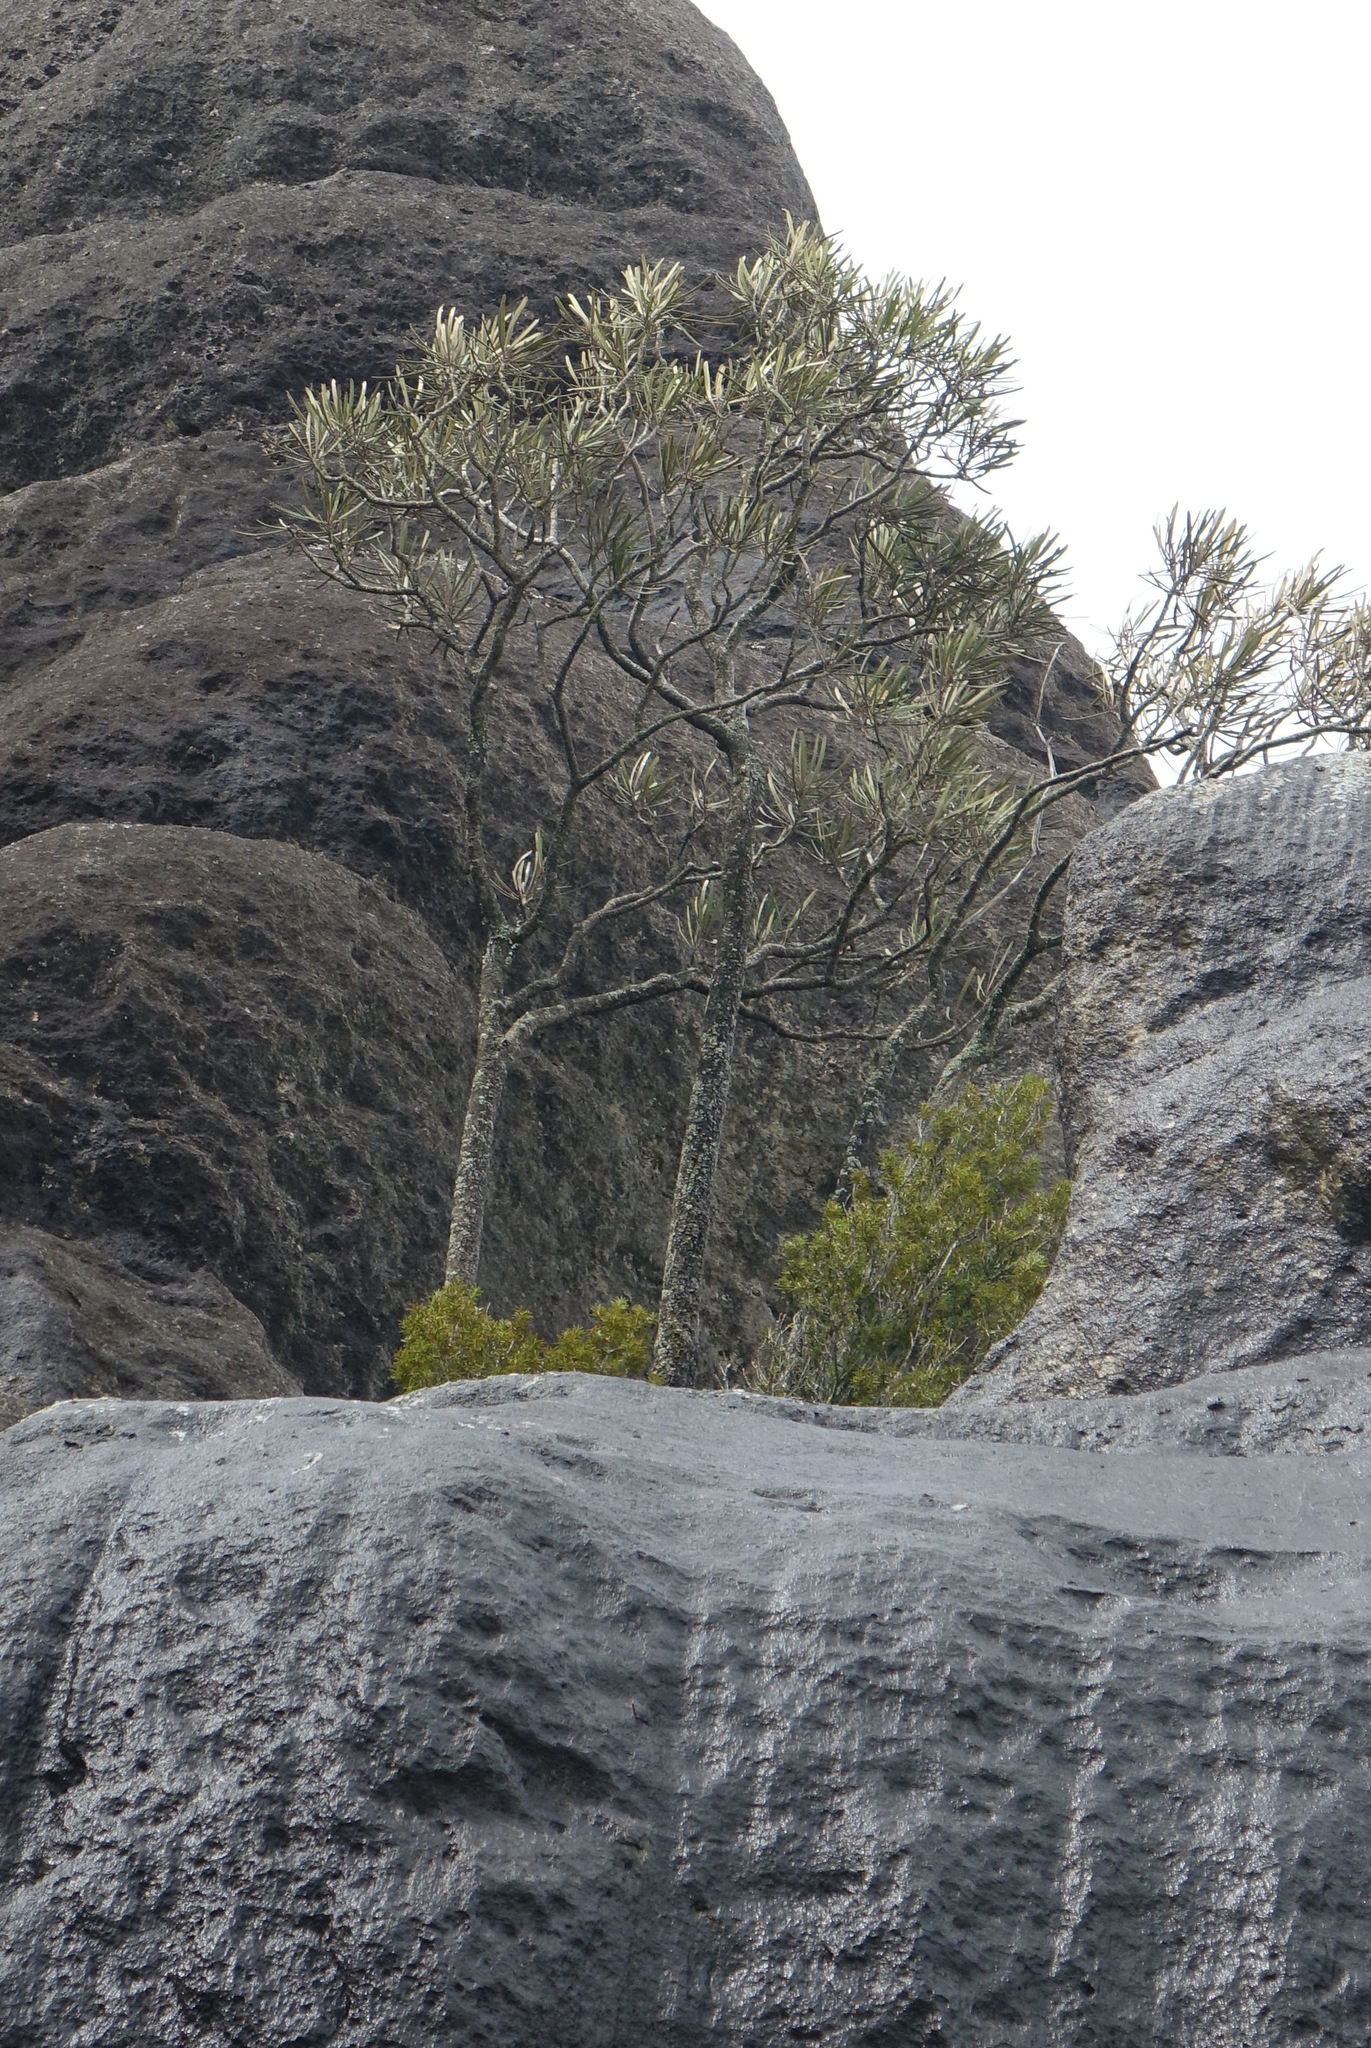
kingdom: Plantae
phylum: Tracheophyta
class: Magnoliopsida
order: Apiales
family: Araliaceae
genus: Pseudopanax
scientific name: Pseudopanax ferox
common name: Fierce lancewood
